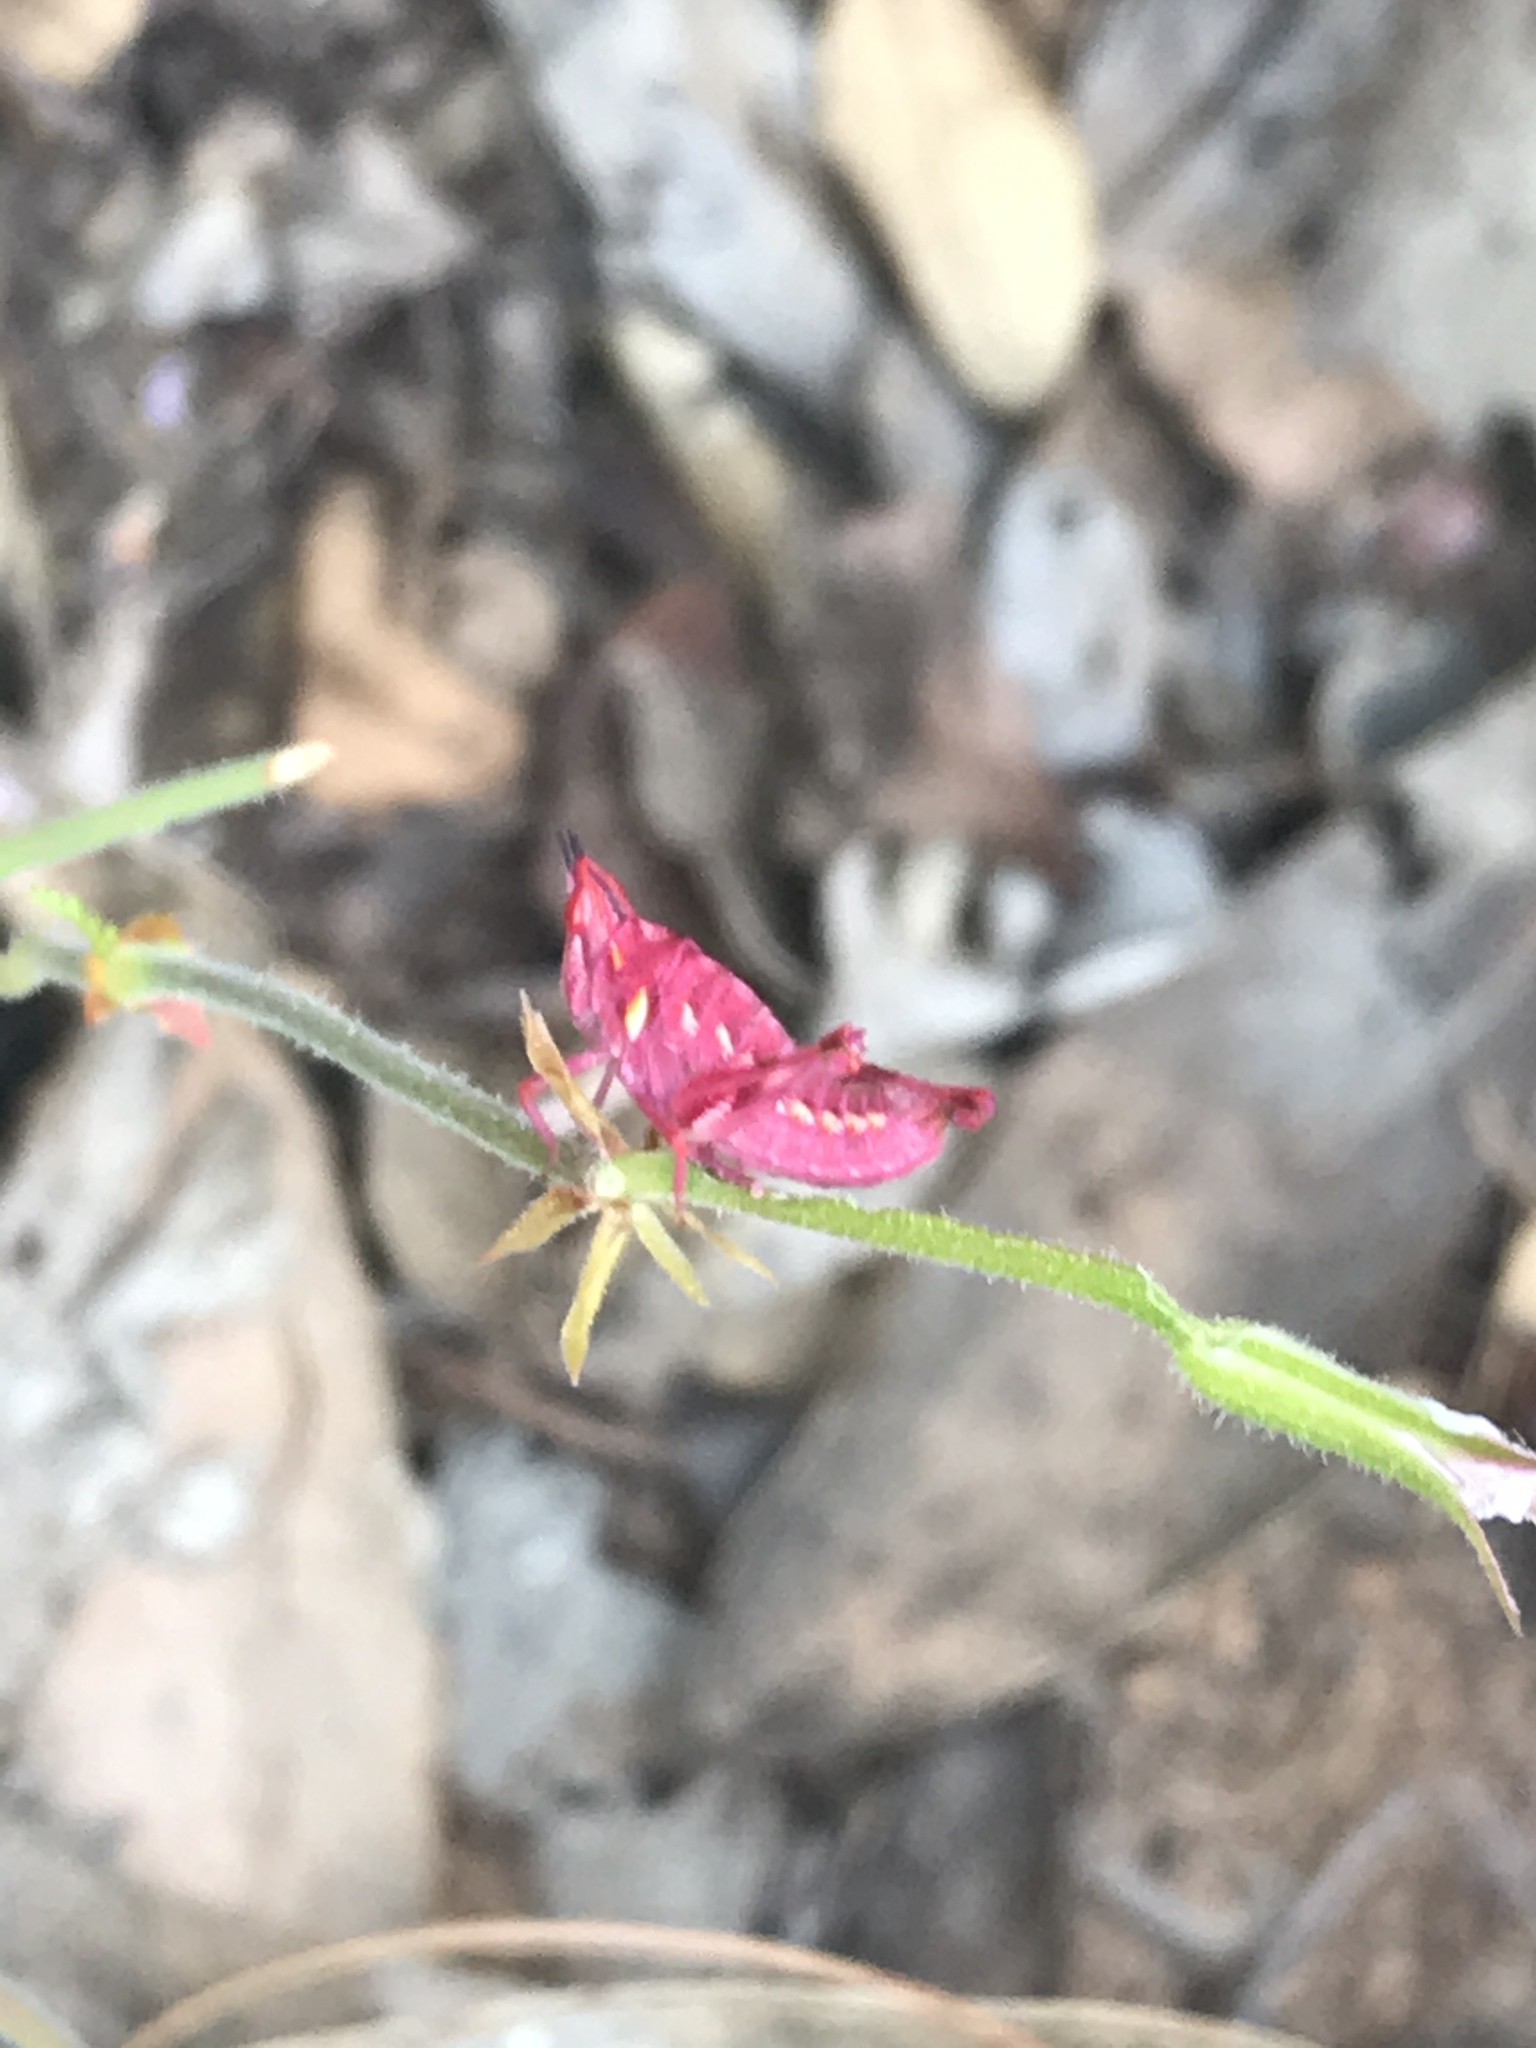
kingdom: Animalia
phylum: Arthropoda
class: Insecta
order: Orthoptera
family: Thericleidae
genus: Thericlesiella
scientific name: Thericlesiella meridionalis
